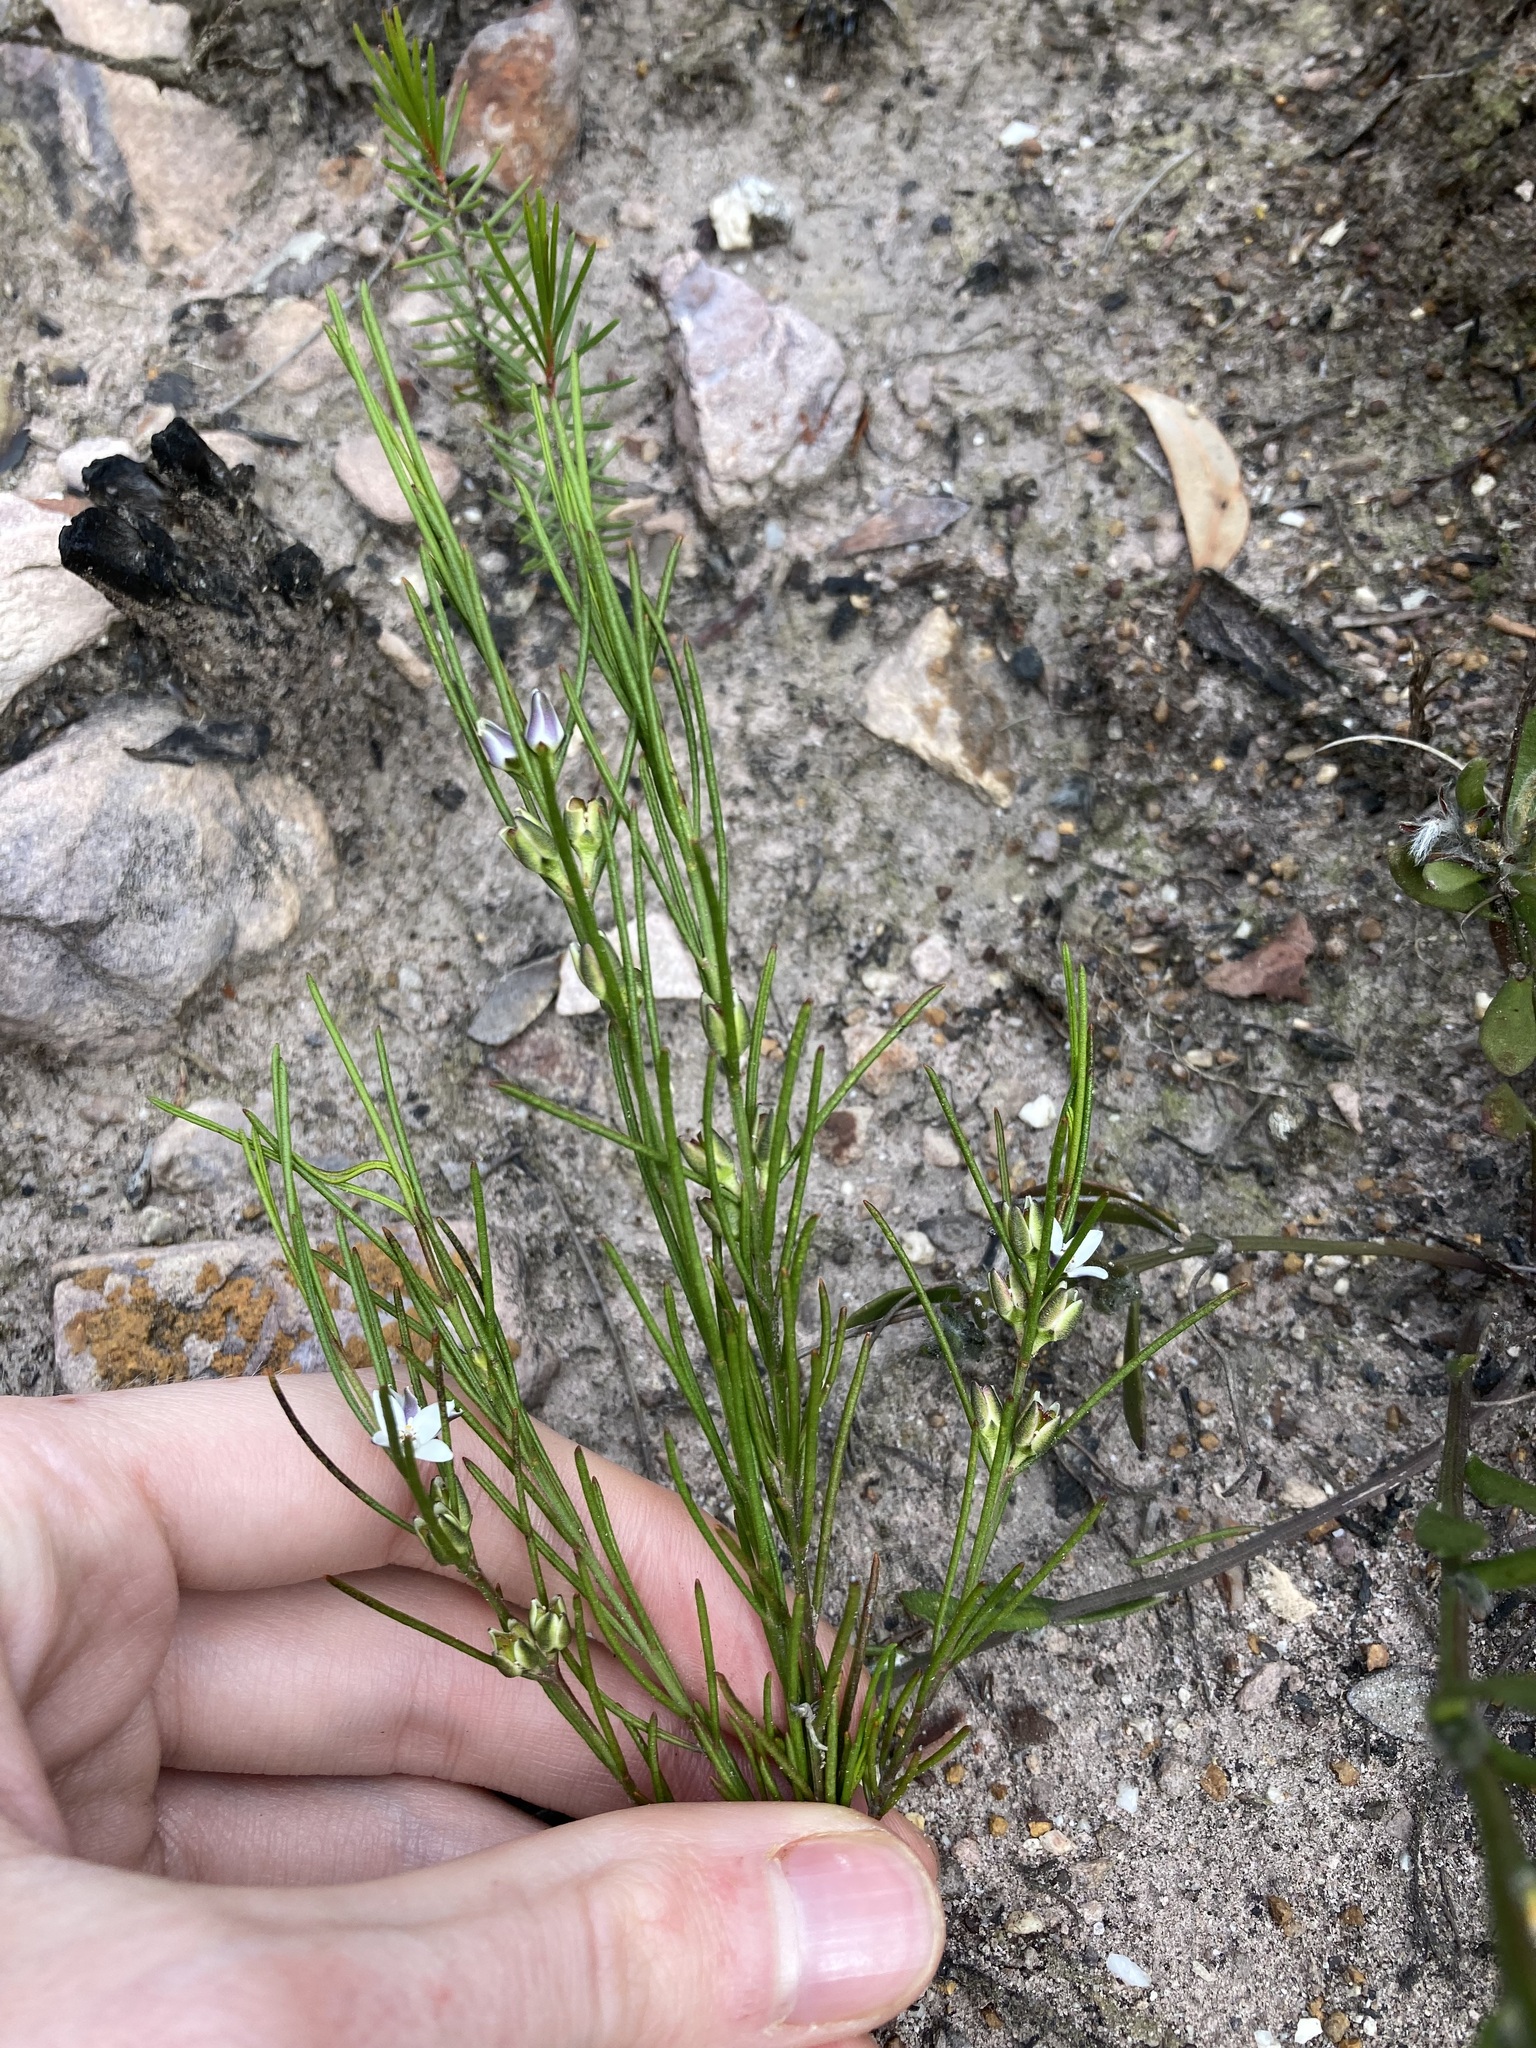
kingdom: Plantae
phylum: Tracheophyta
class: Magnoliopsida
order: Sapindales
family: Rutaceae
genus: Cyanothamnus
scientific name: Cyanothamnus subsessilis
